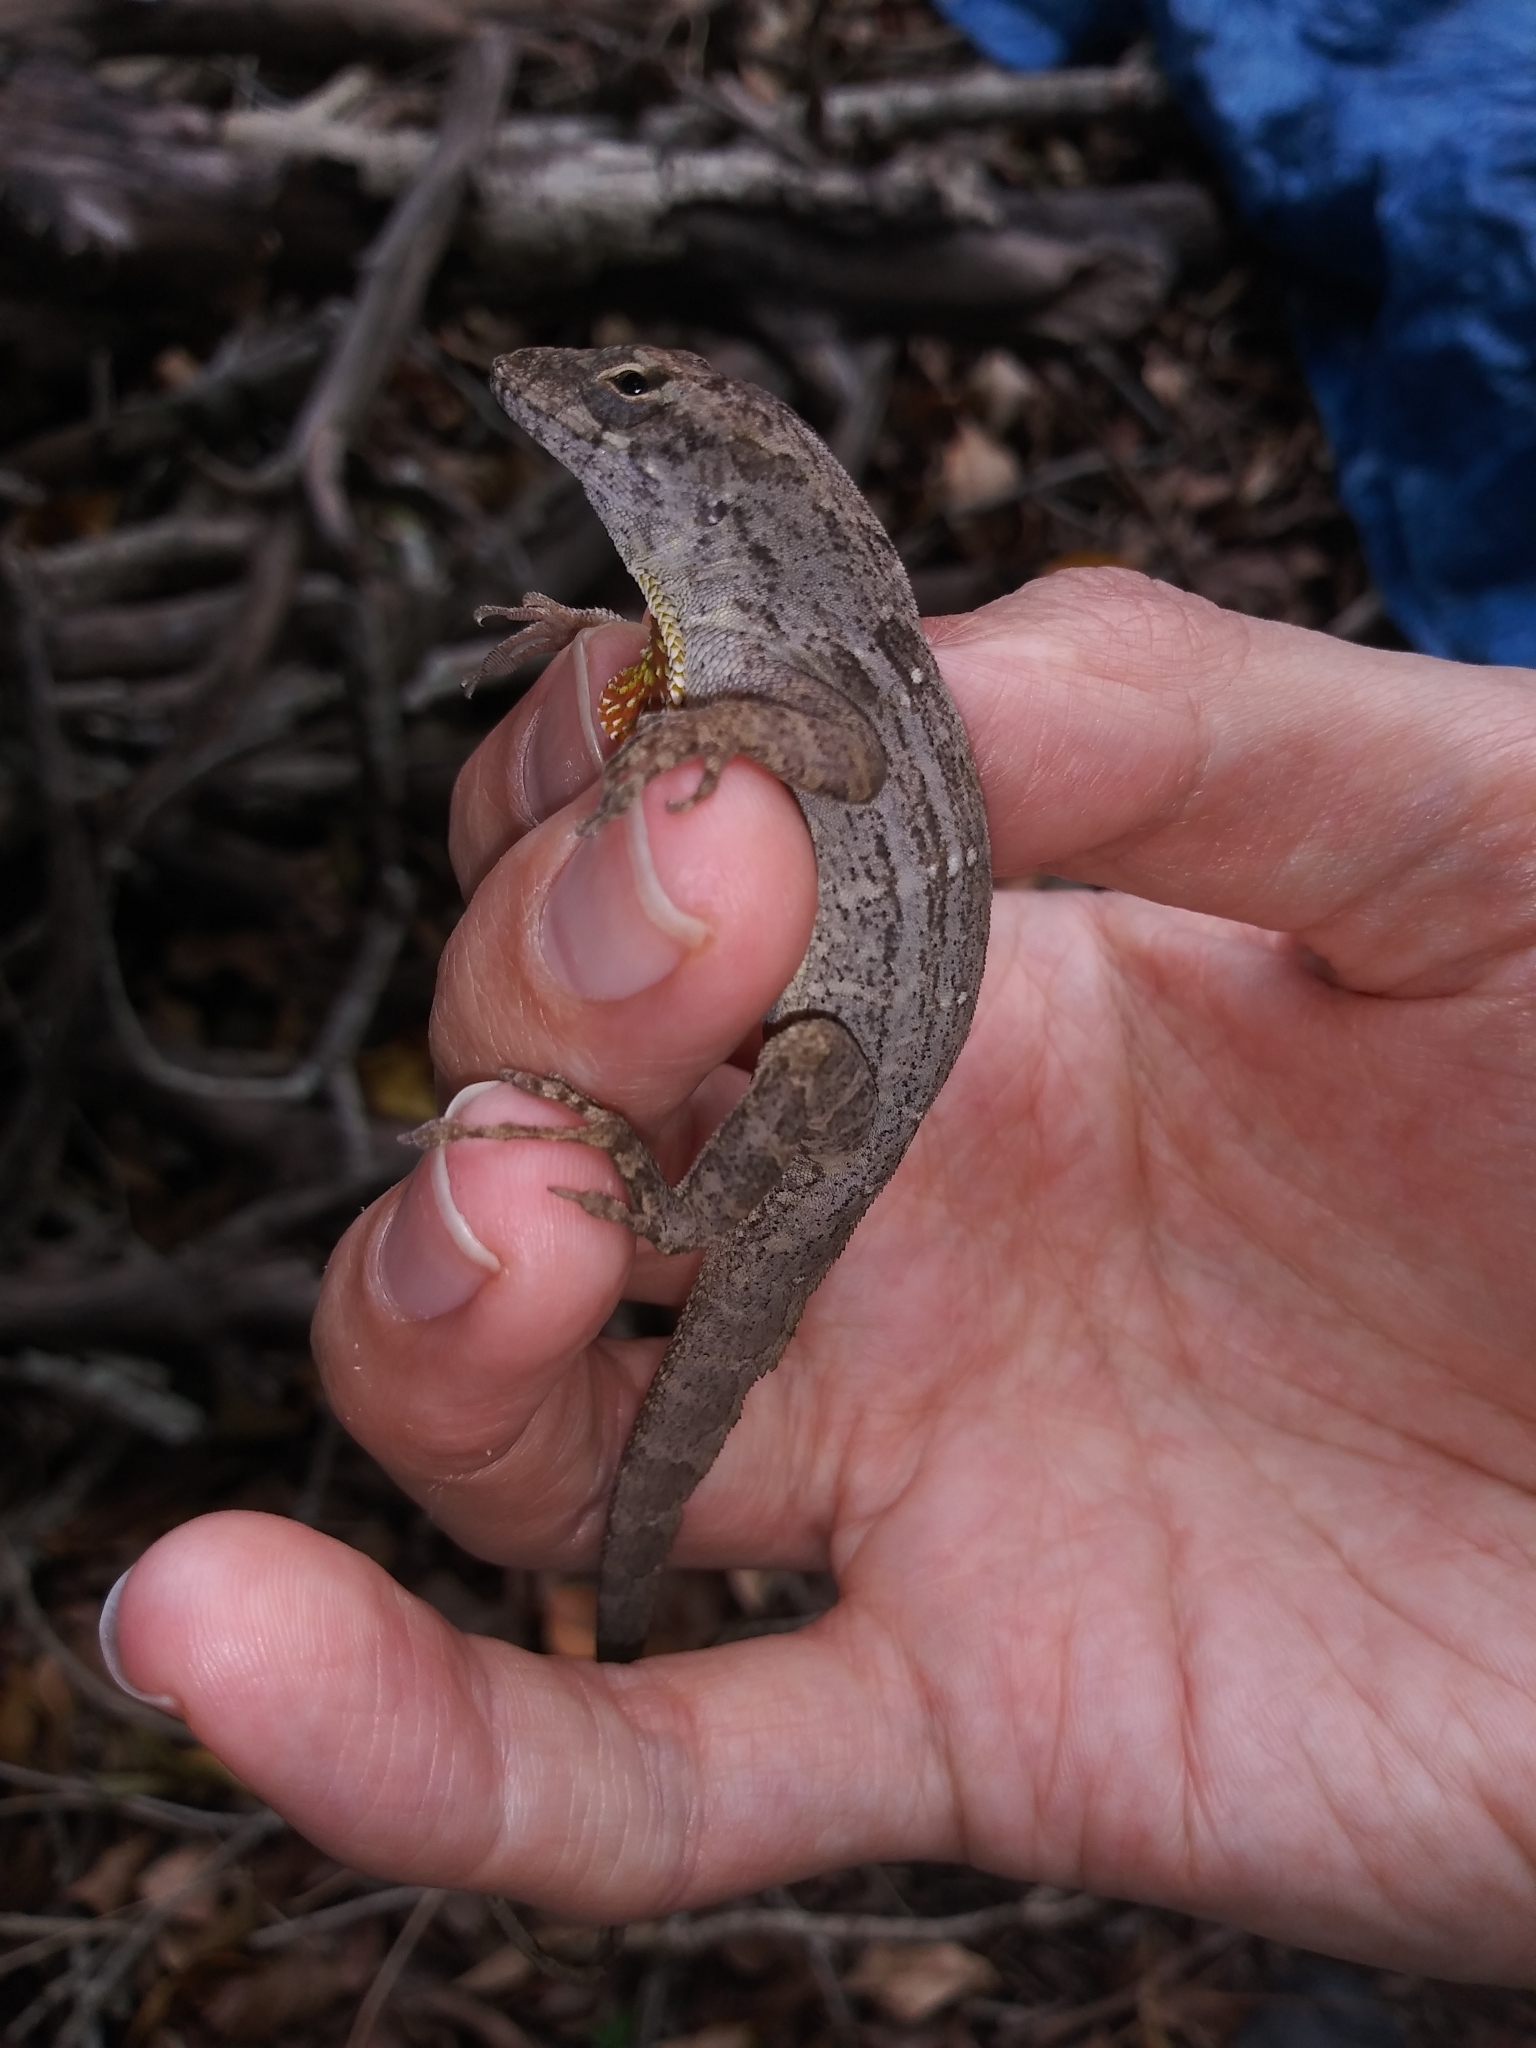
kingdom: Animalia
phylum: Chordata
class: Squamata
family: Dactyloidae
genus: Anolis
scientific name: Anolis sagrei
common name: Brown anole
